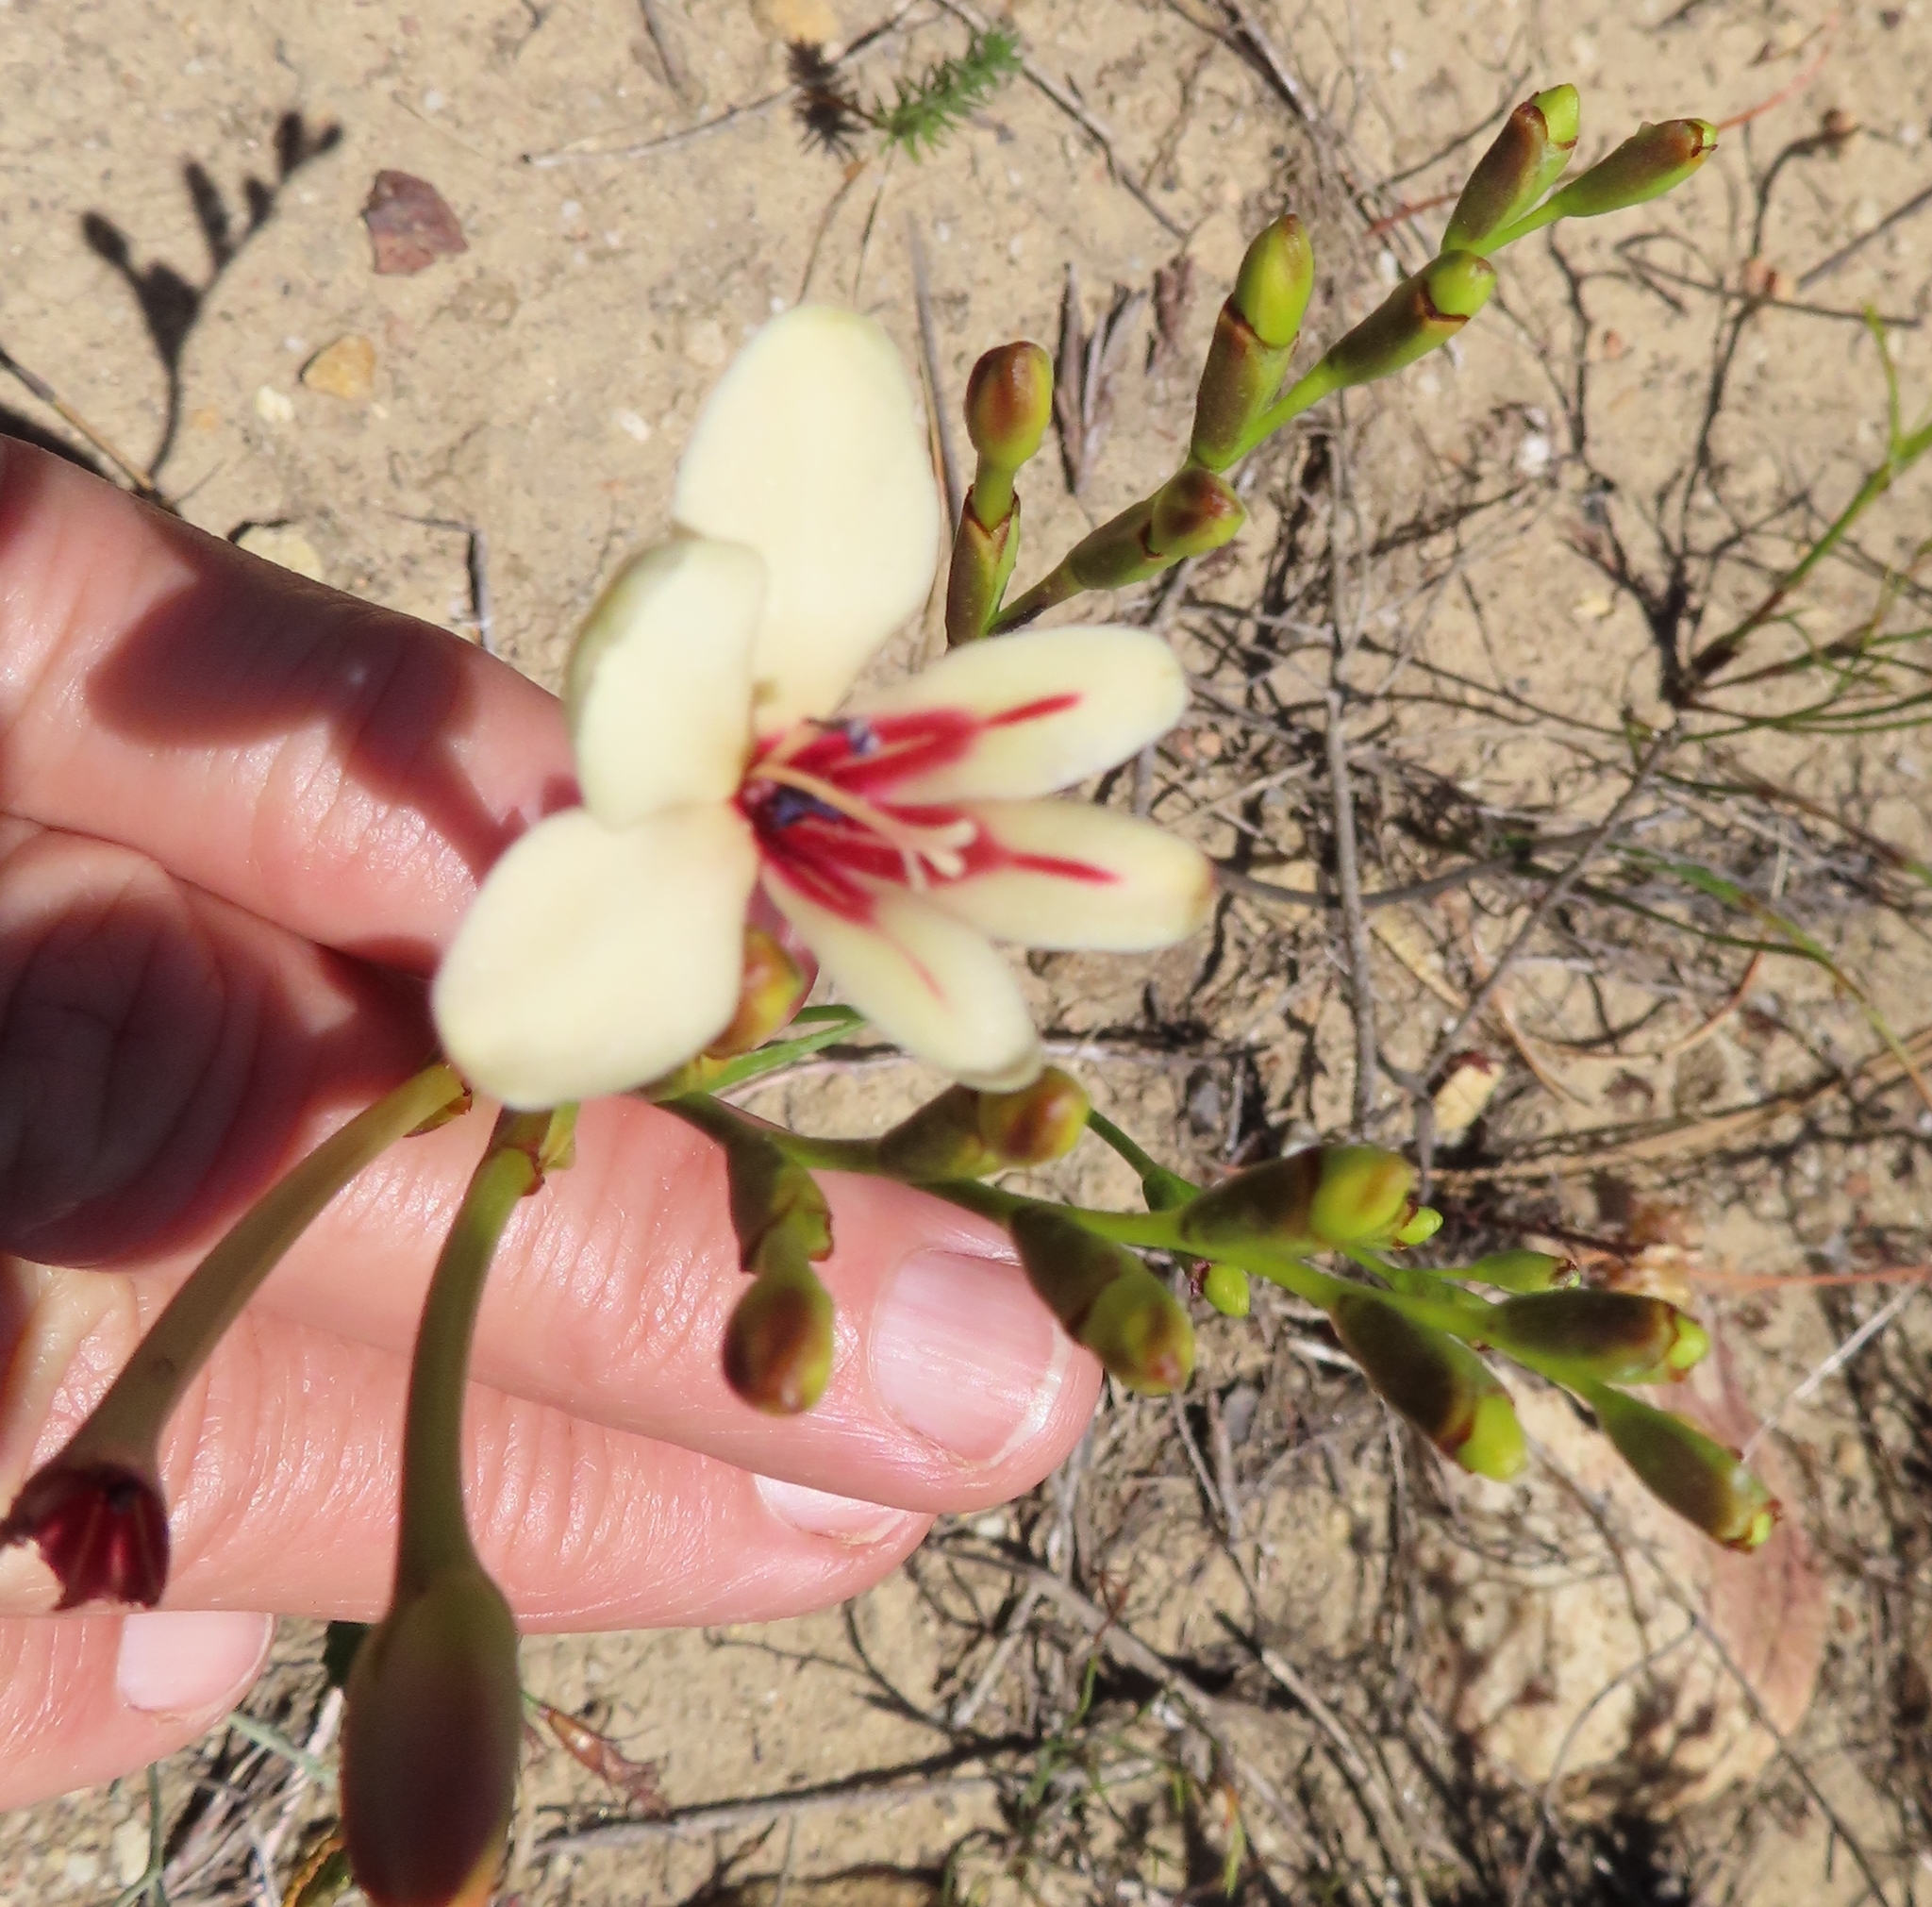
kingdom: Plantae
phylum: Tracheophyta
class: Liliopsida
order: Asparagales
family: Iridaceae
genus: Tritonia
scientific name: Tritonia undulata
